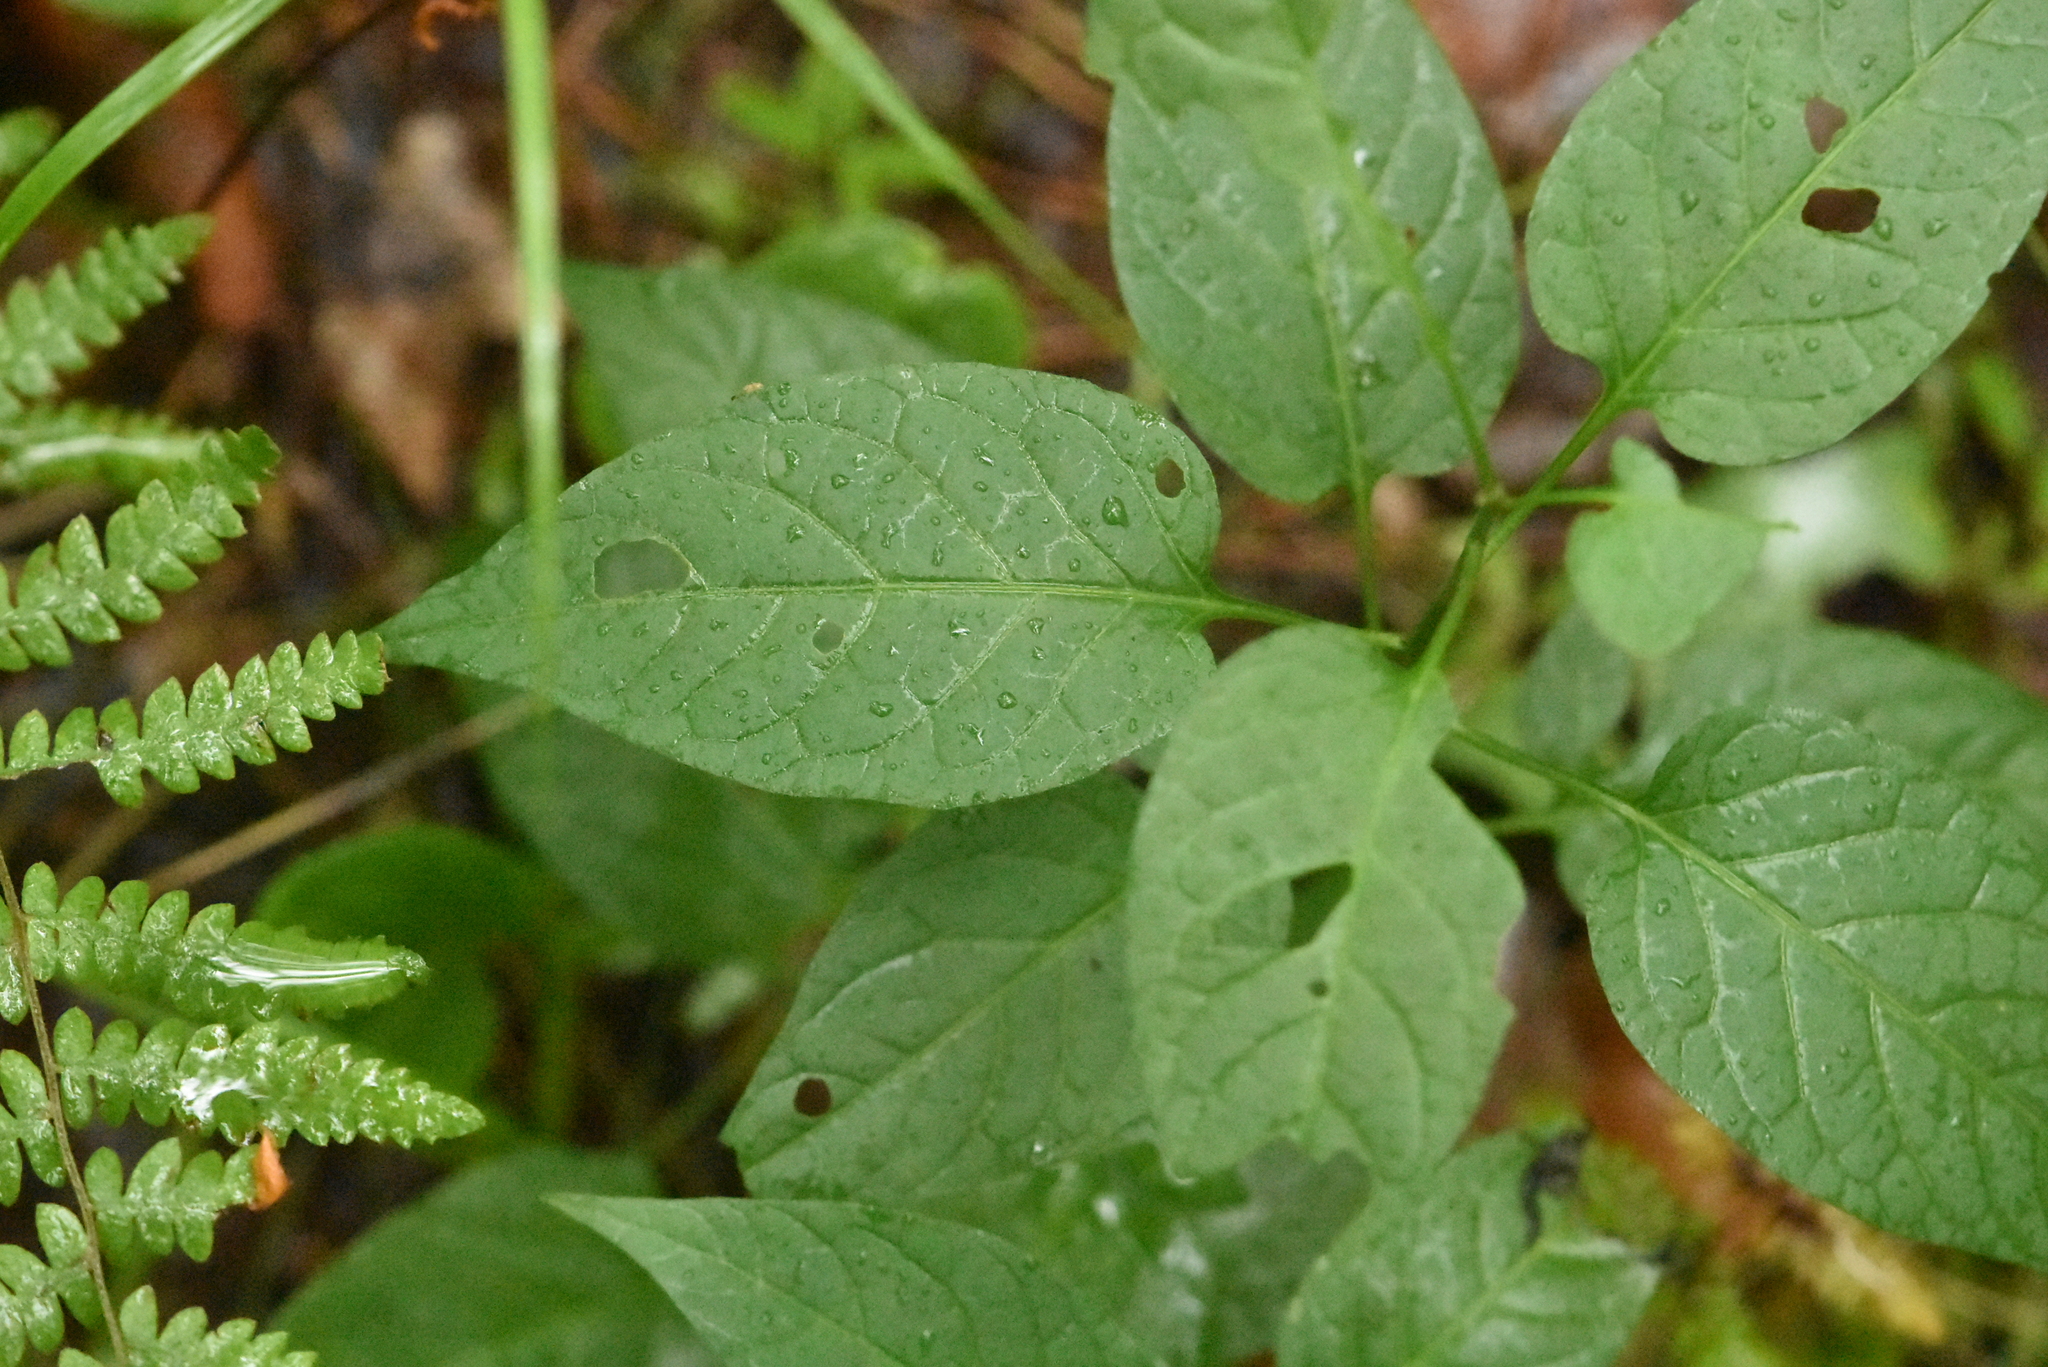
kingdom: Plantae
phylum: Tracheophyta
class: Magnoliopsida
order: Solanales
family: Solanaceae
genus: Solanum
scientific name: Solanum dulcamara
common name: Climbing nightshade
